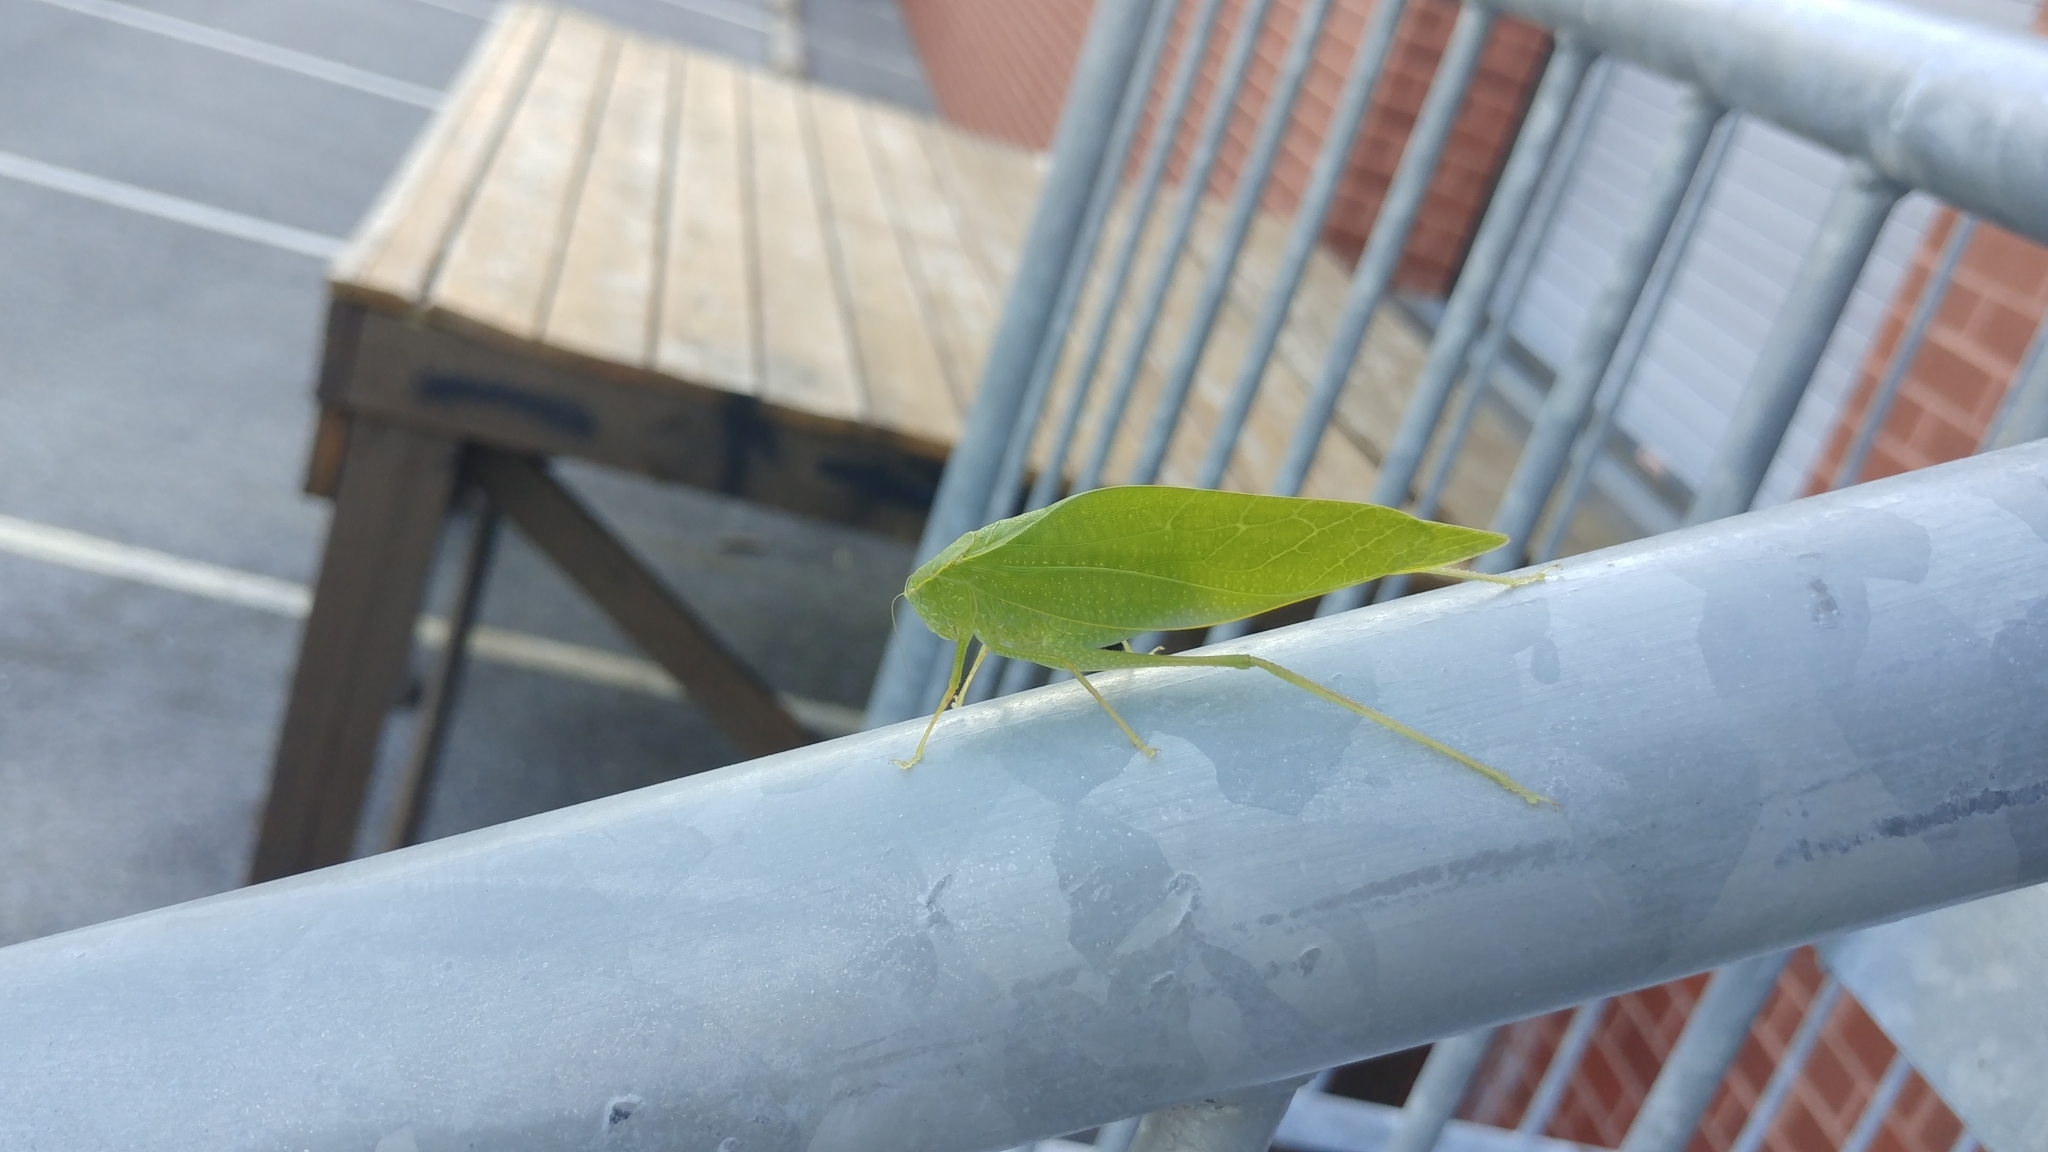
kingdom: Animalia
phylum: Arthropoda
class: Insecta
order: Orthoptera
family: Tettigoniidae
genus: Microcentrum
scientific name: Microcentrum rhombifolium
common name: Broad-winged katydid
